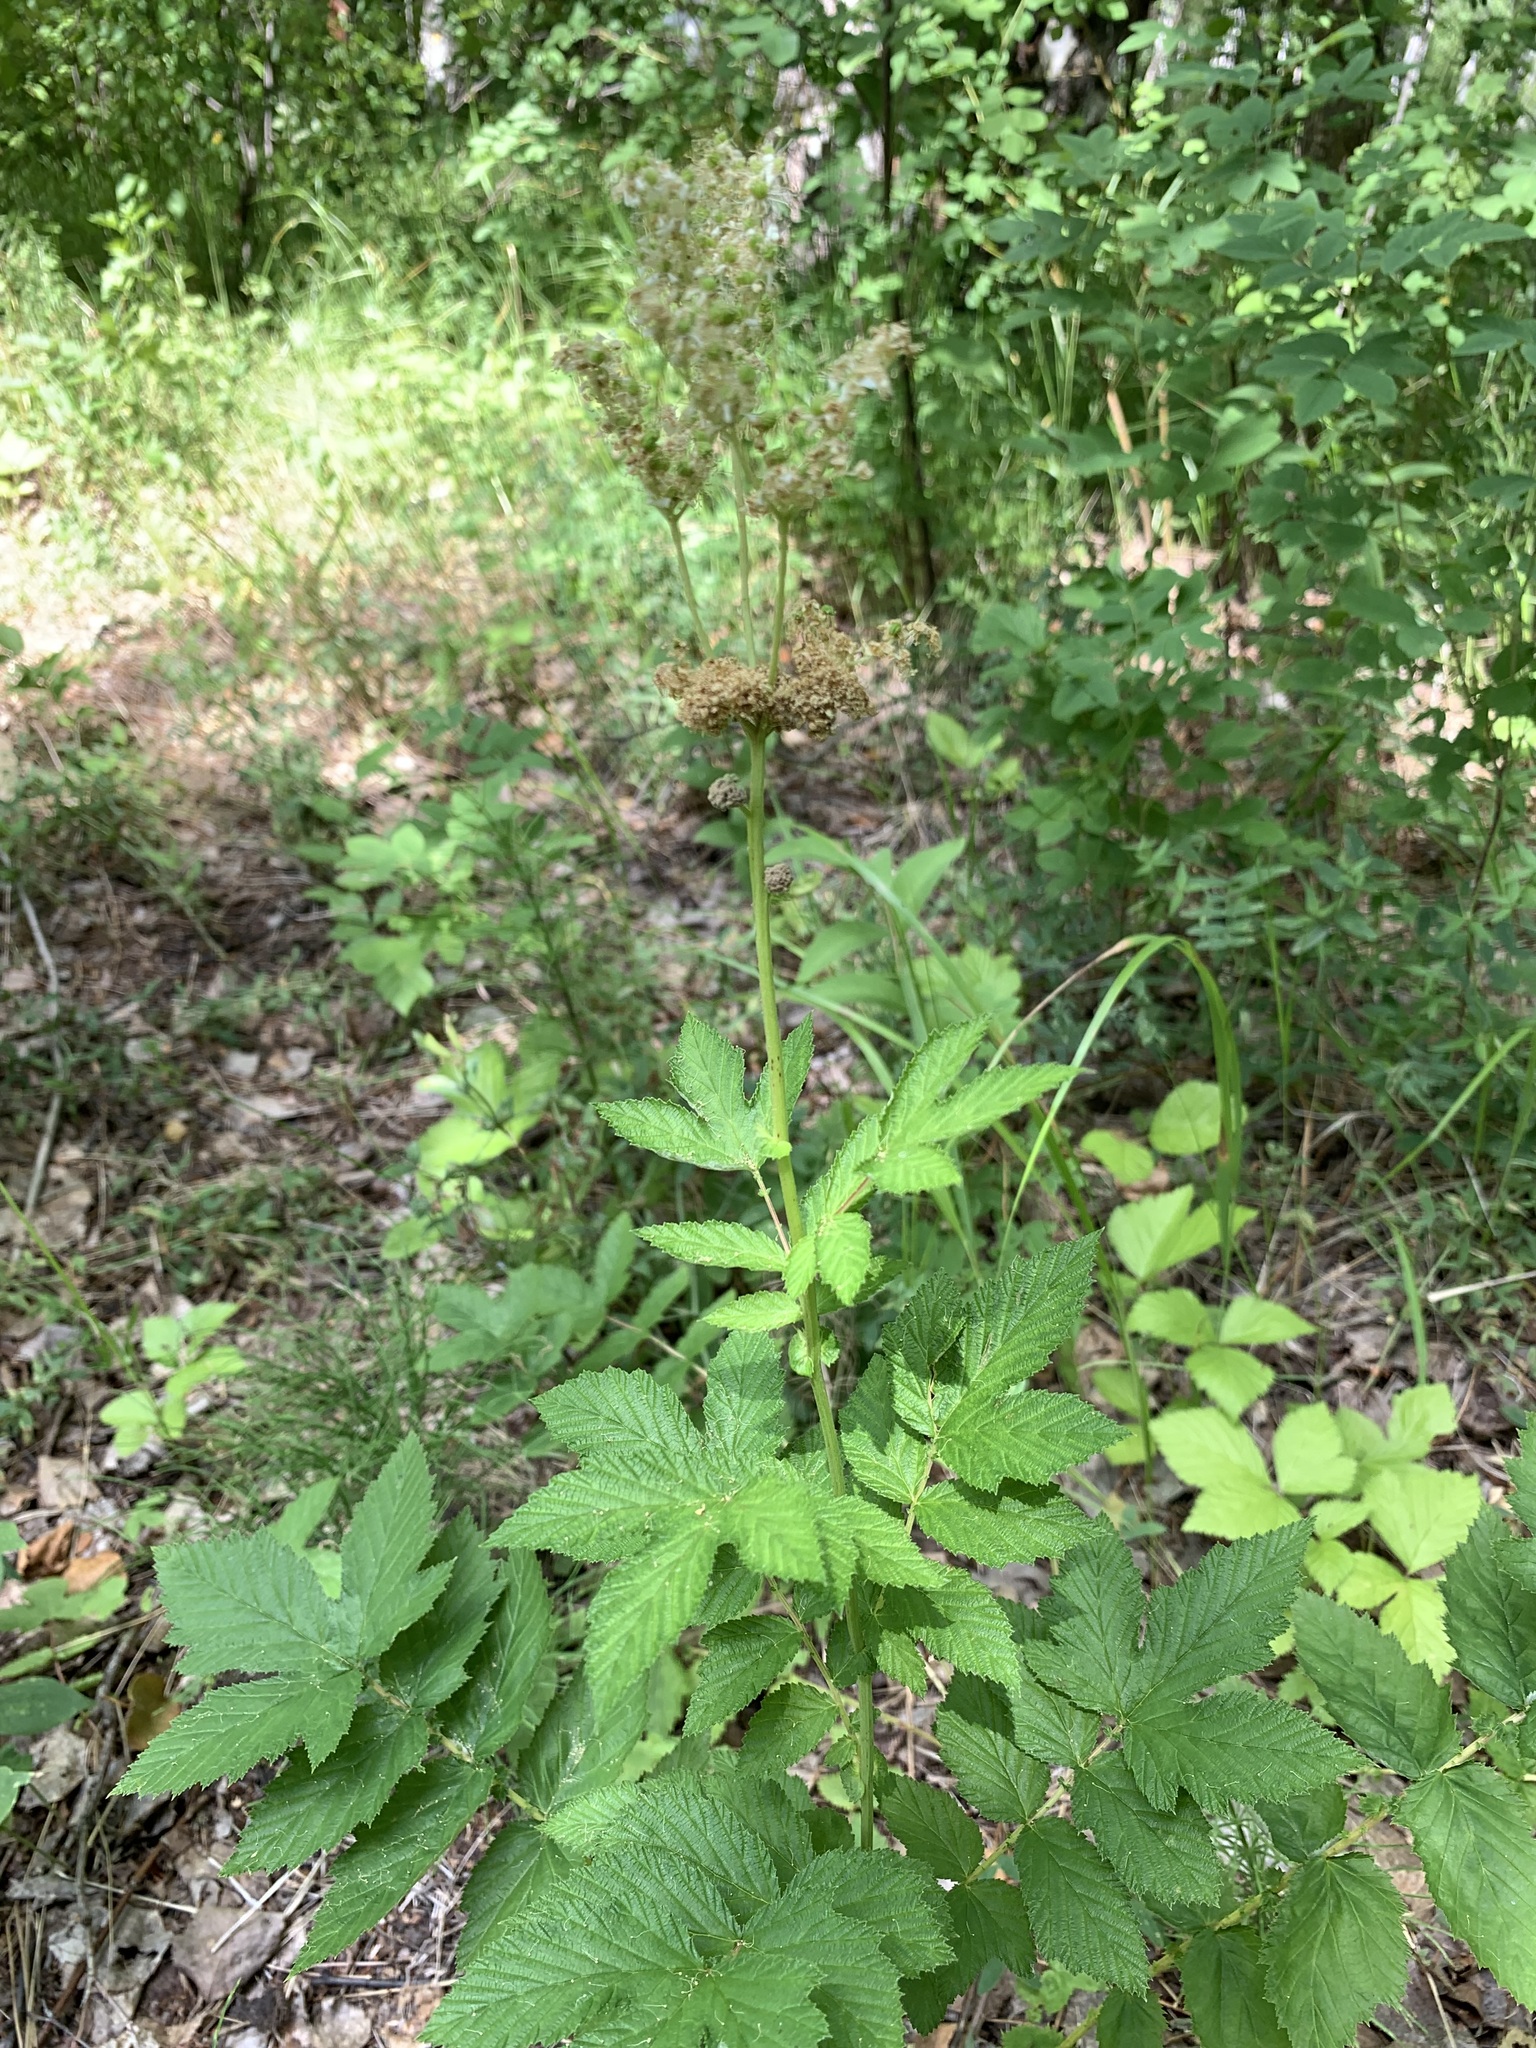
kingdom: Plantae
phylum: Tracheophyta
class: Magnoliopsida
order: Rosales
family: Rosaceae
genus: Filipendula
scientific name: Filipendula ulmaria
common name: Meadowsweet
